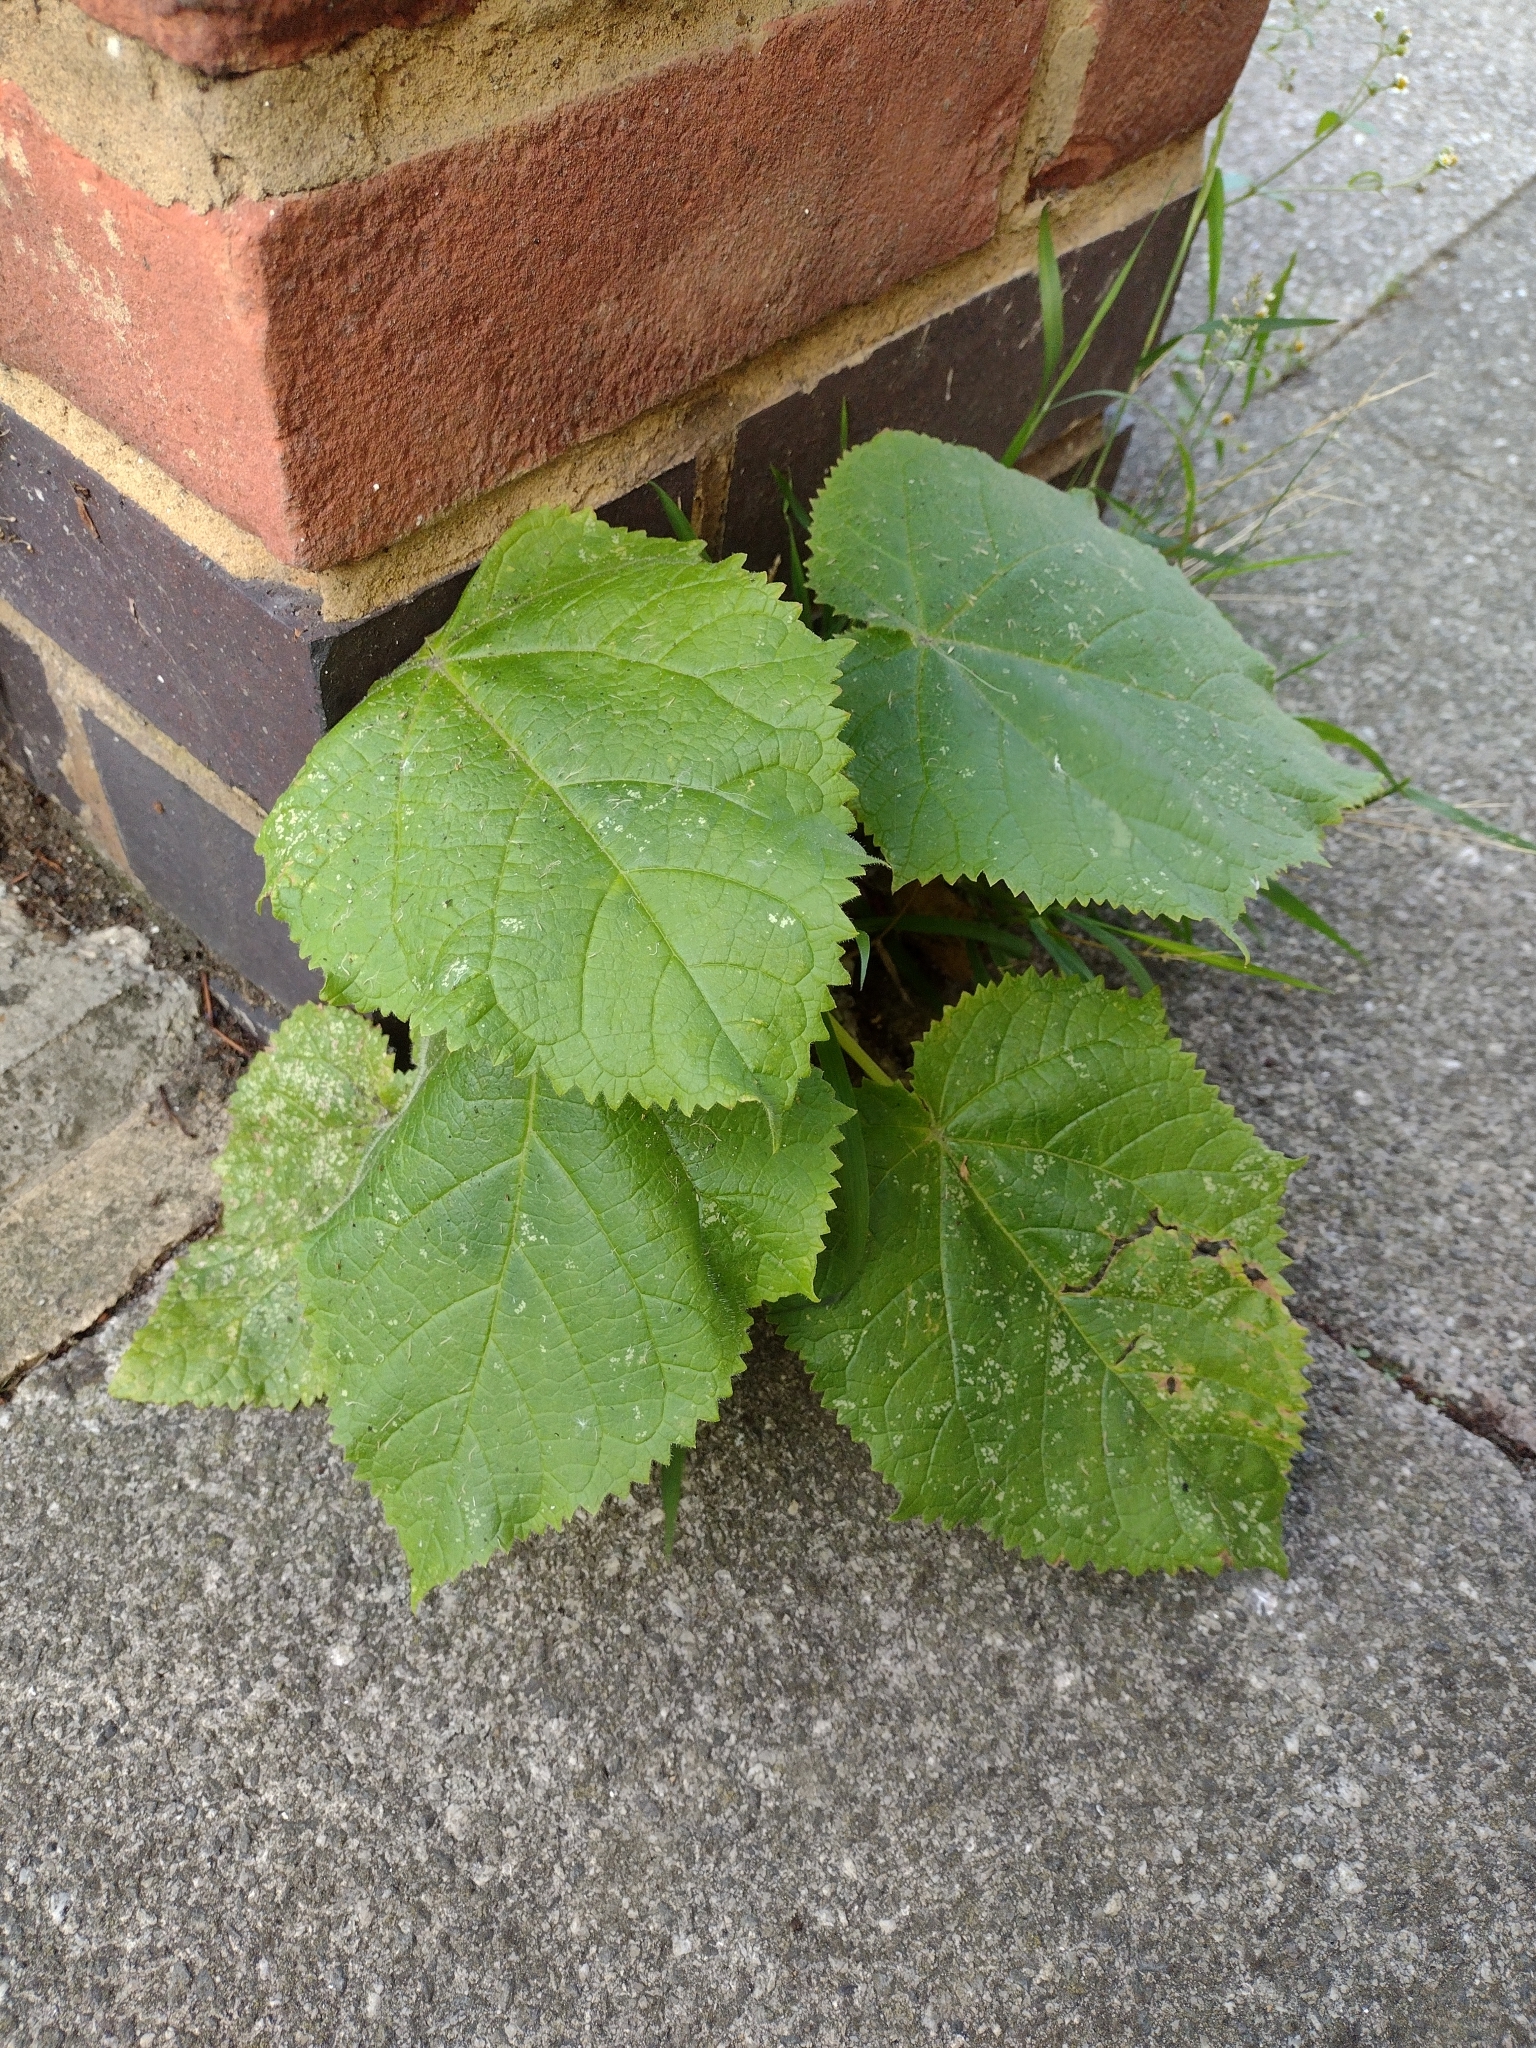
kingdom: Plantae
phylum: Tracheophyta
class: Magnoliopsida
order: Lamiales
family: Paulowniaceae
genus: Paulownia
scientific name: Paulownia tomentosa
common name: Foxglove-tree
